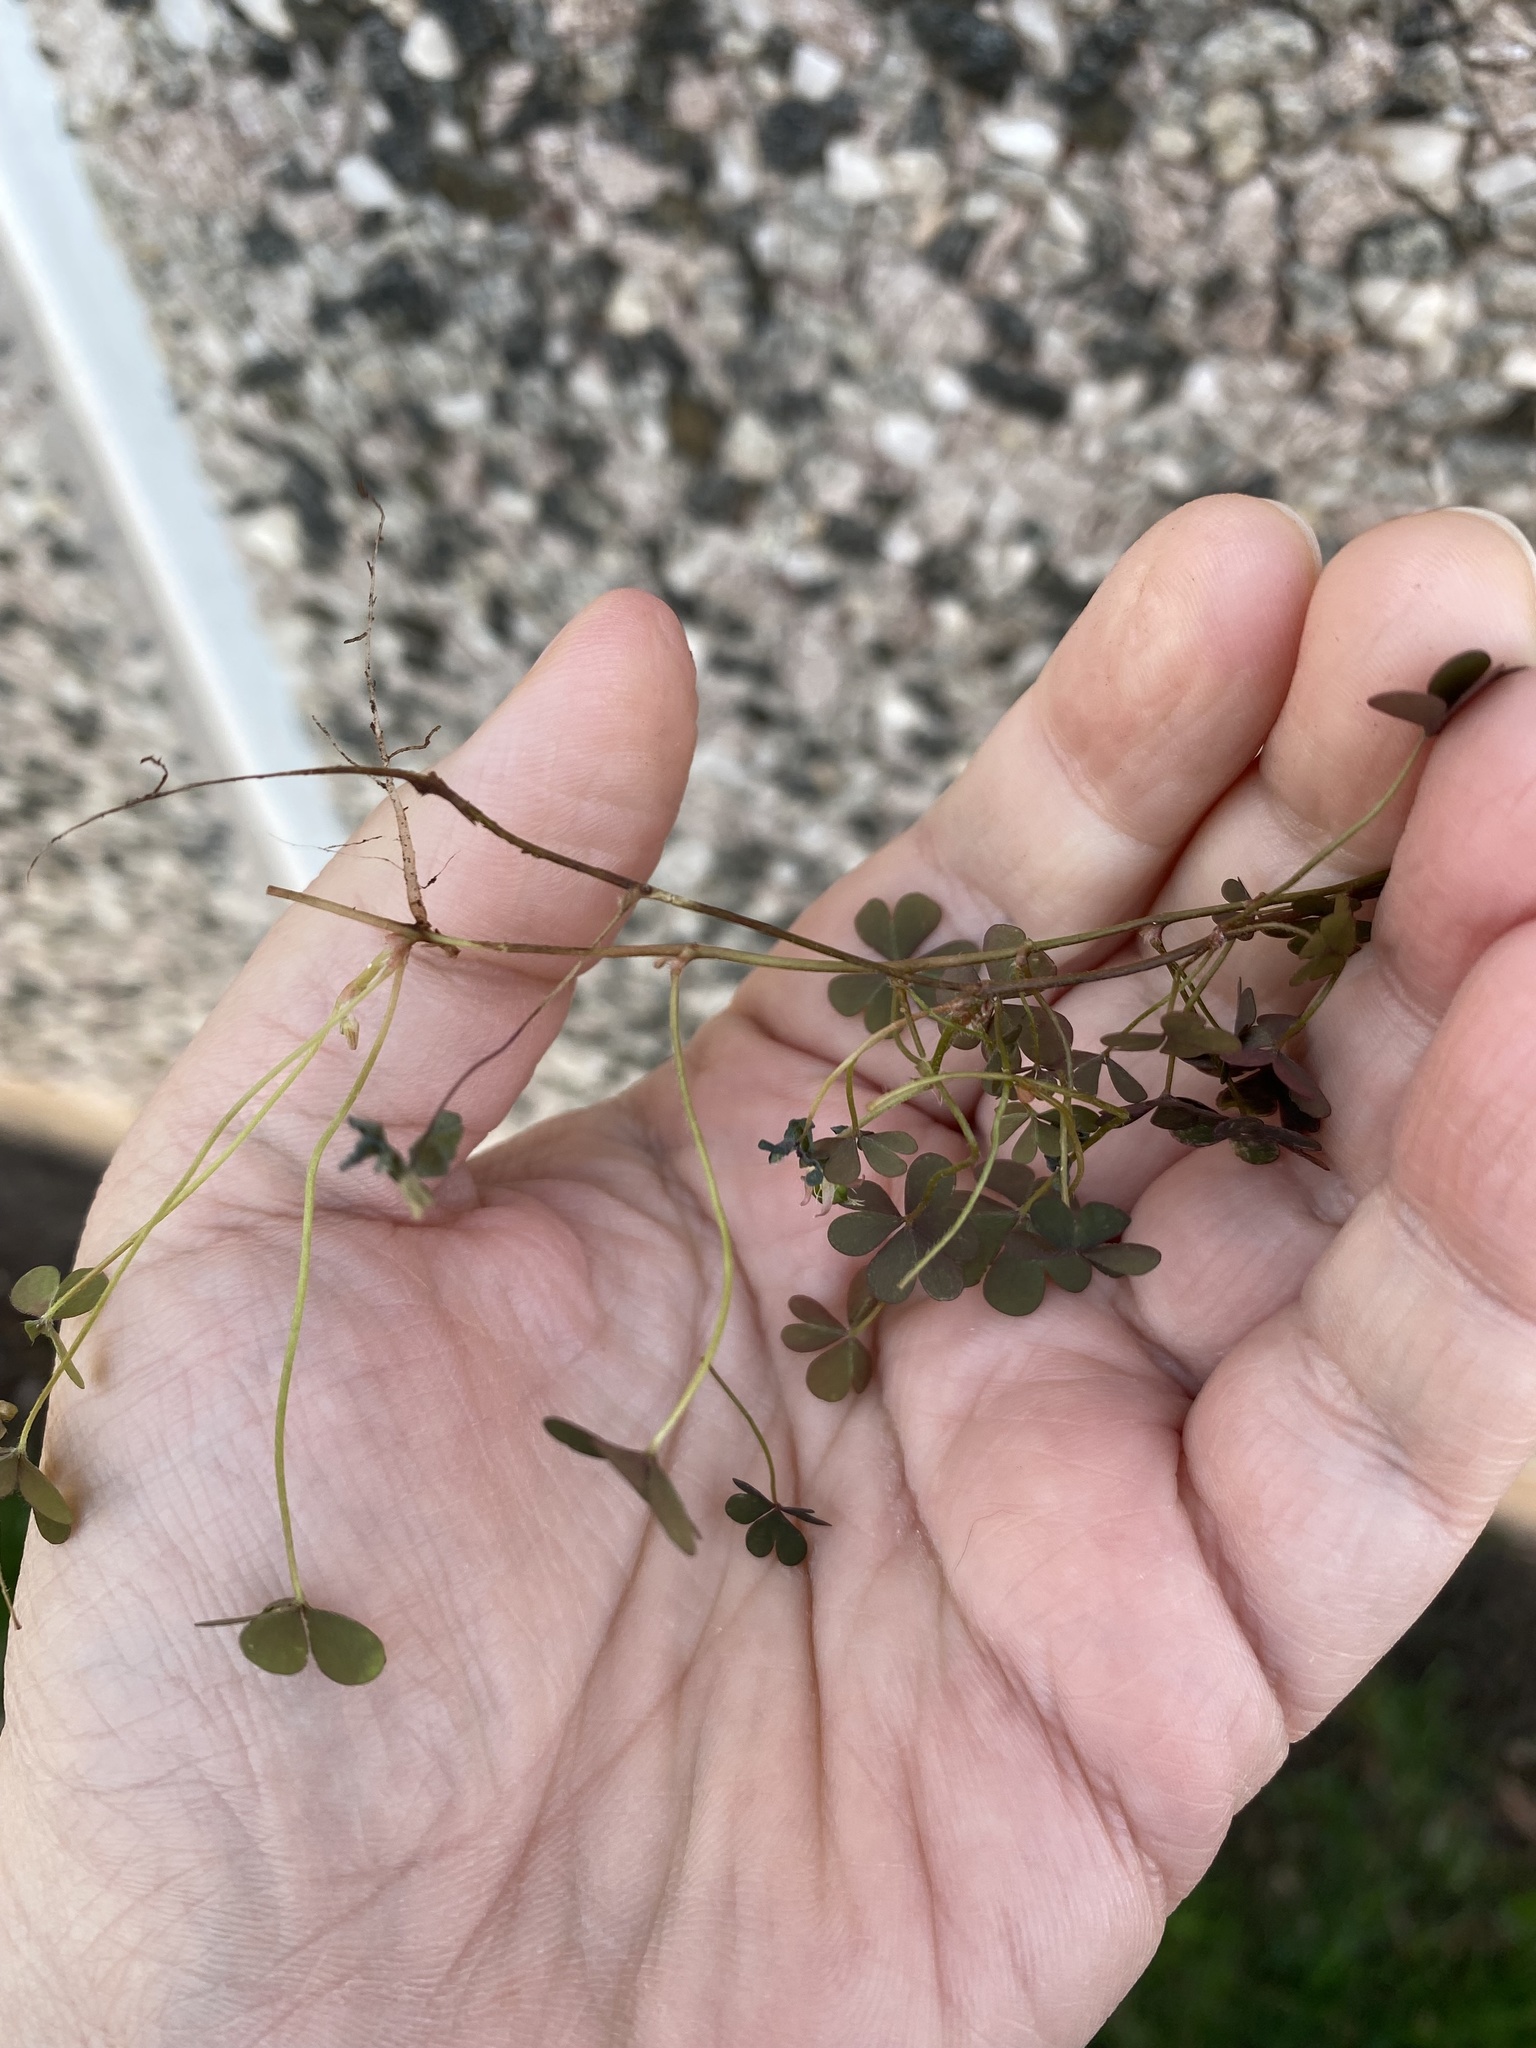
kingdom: Plantae
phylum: Tracheophyta
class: Magnoliopsida
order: Oxalidales
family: Oxalidaceae
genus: Oxalis
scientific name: Oxalis corniculata
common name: Procumbent yellow-sorrel
